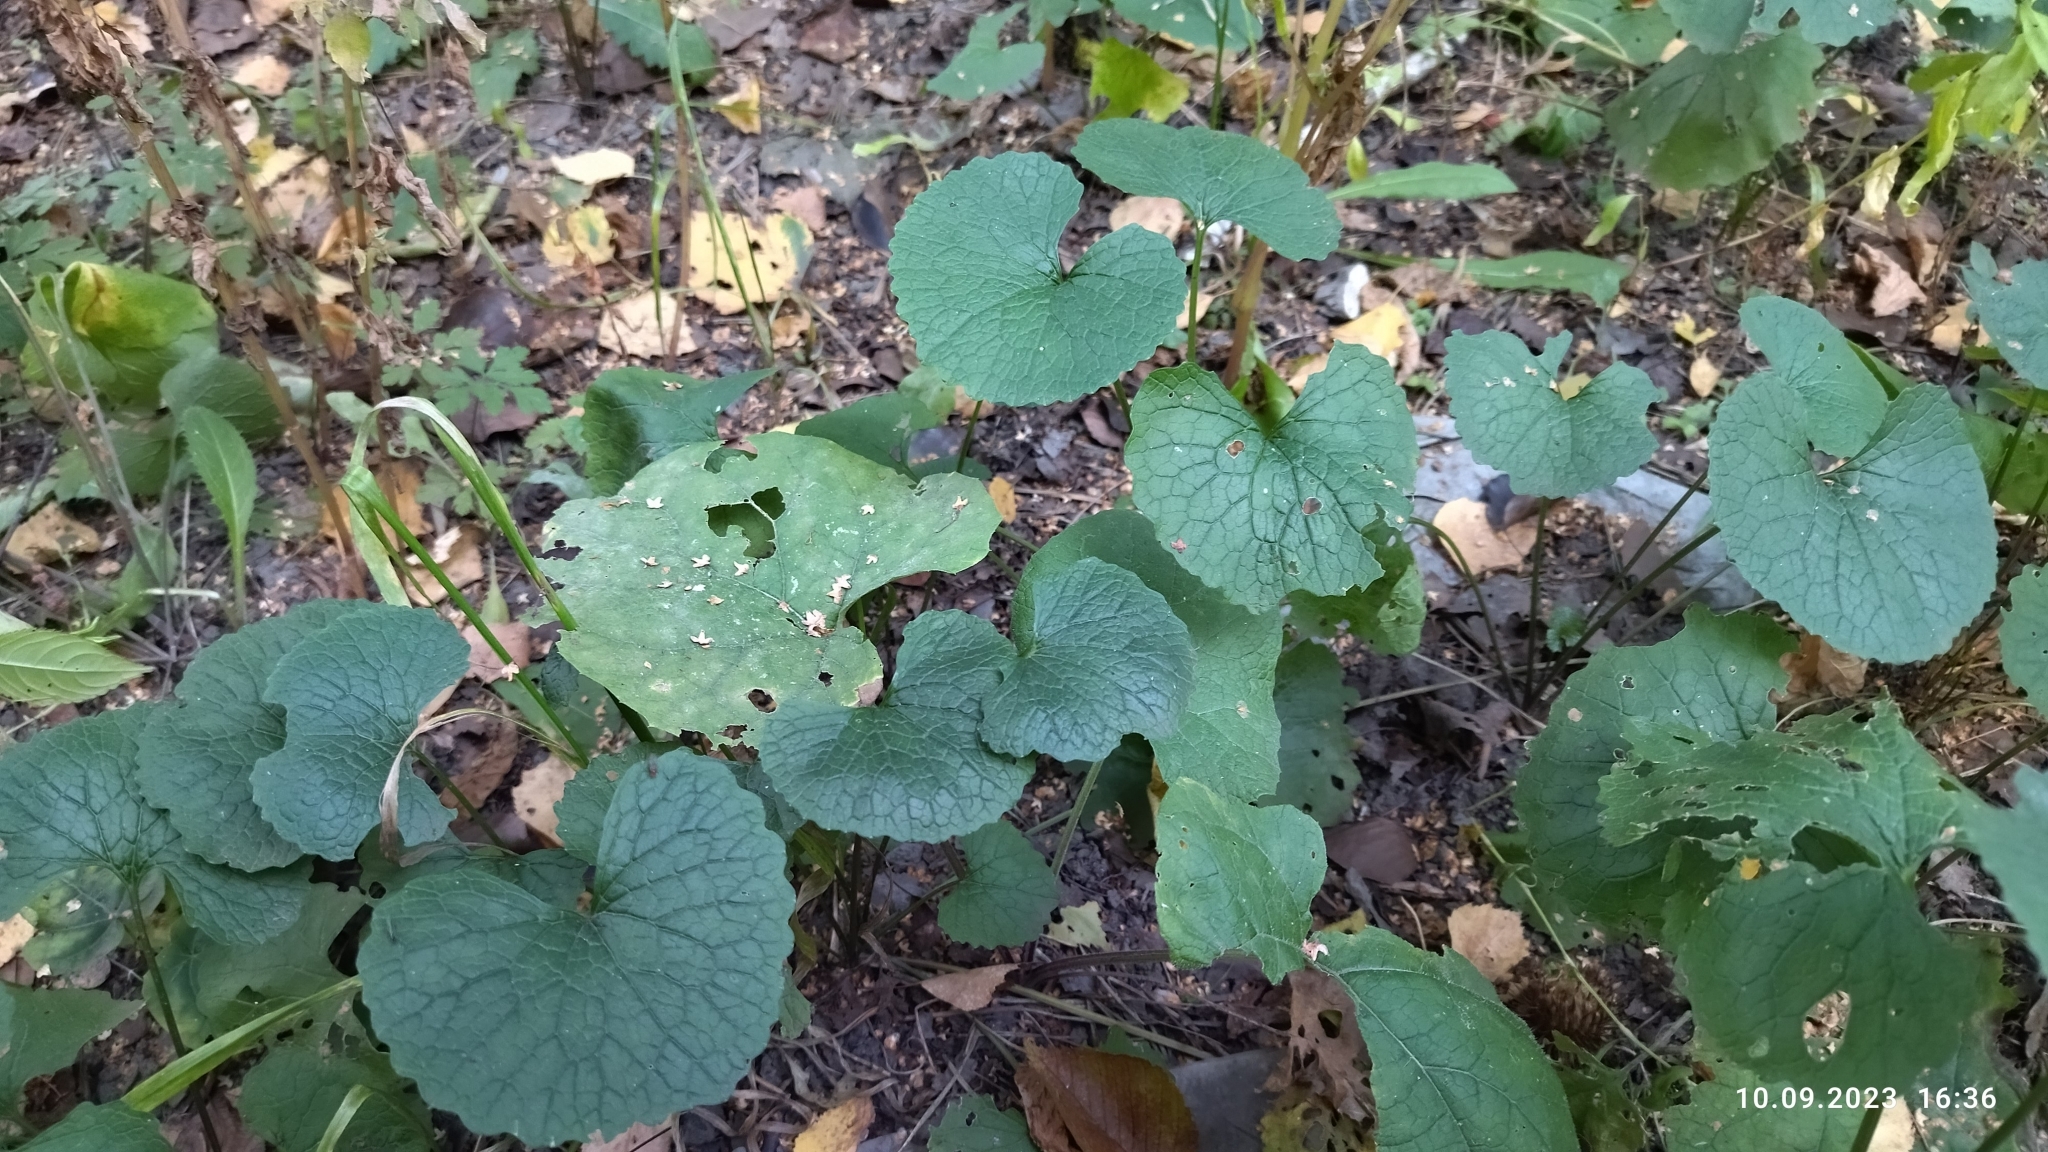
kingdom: Plantae
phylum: Tracheophyta
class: Magnoliopsida
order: Brassicales
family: Brassicaceae
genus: Alliaria
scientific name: Alliaria petiolata
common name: Garlic mustard
